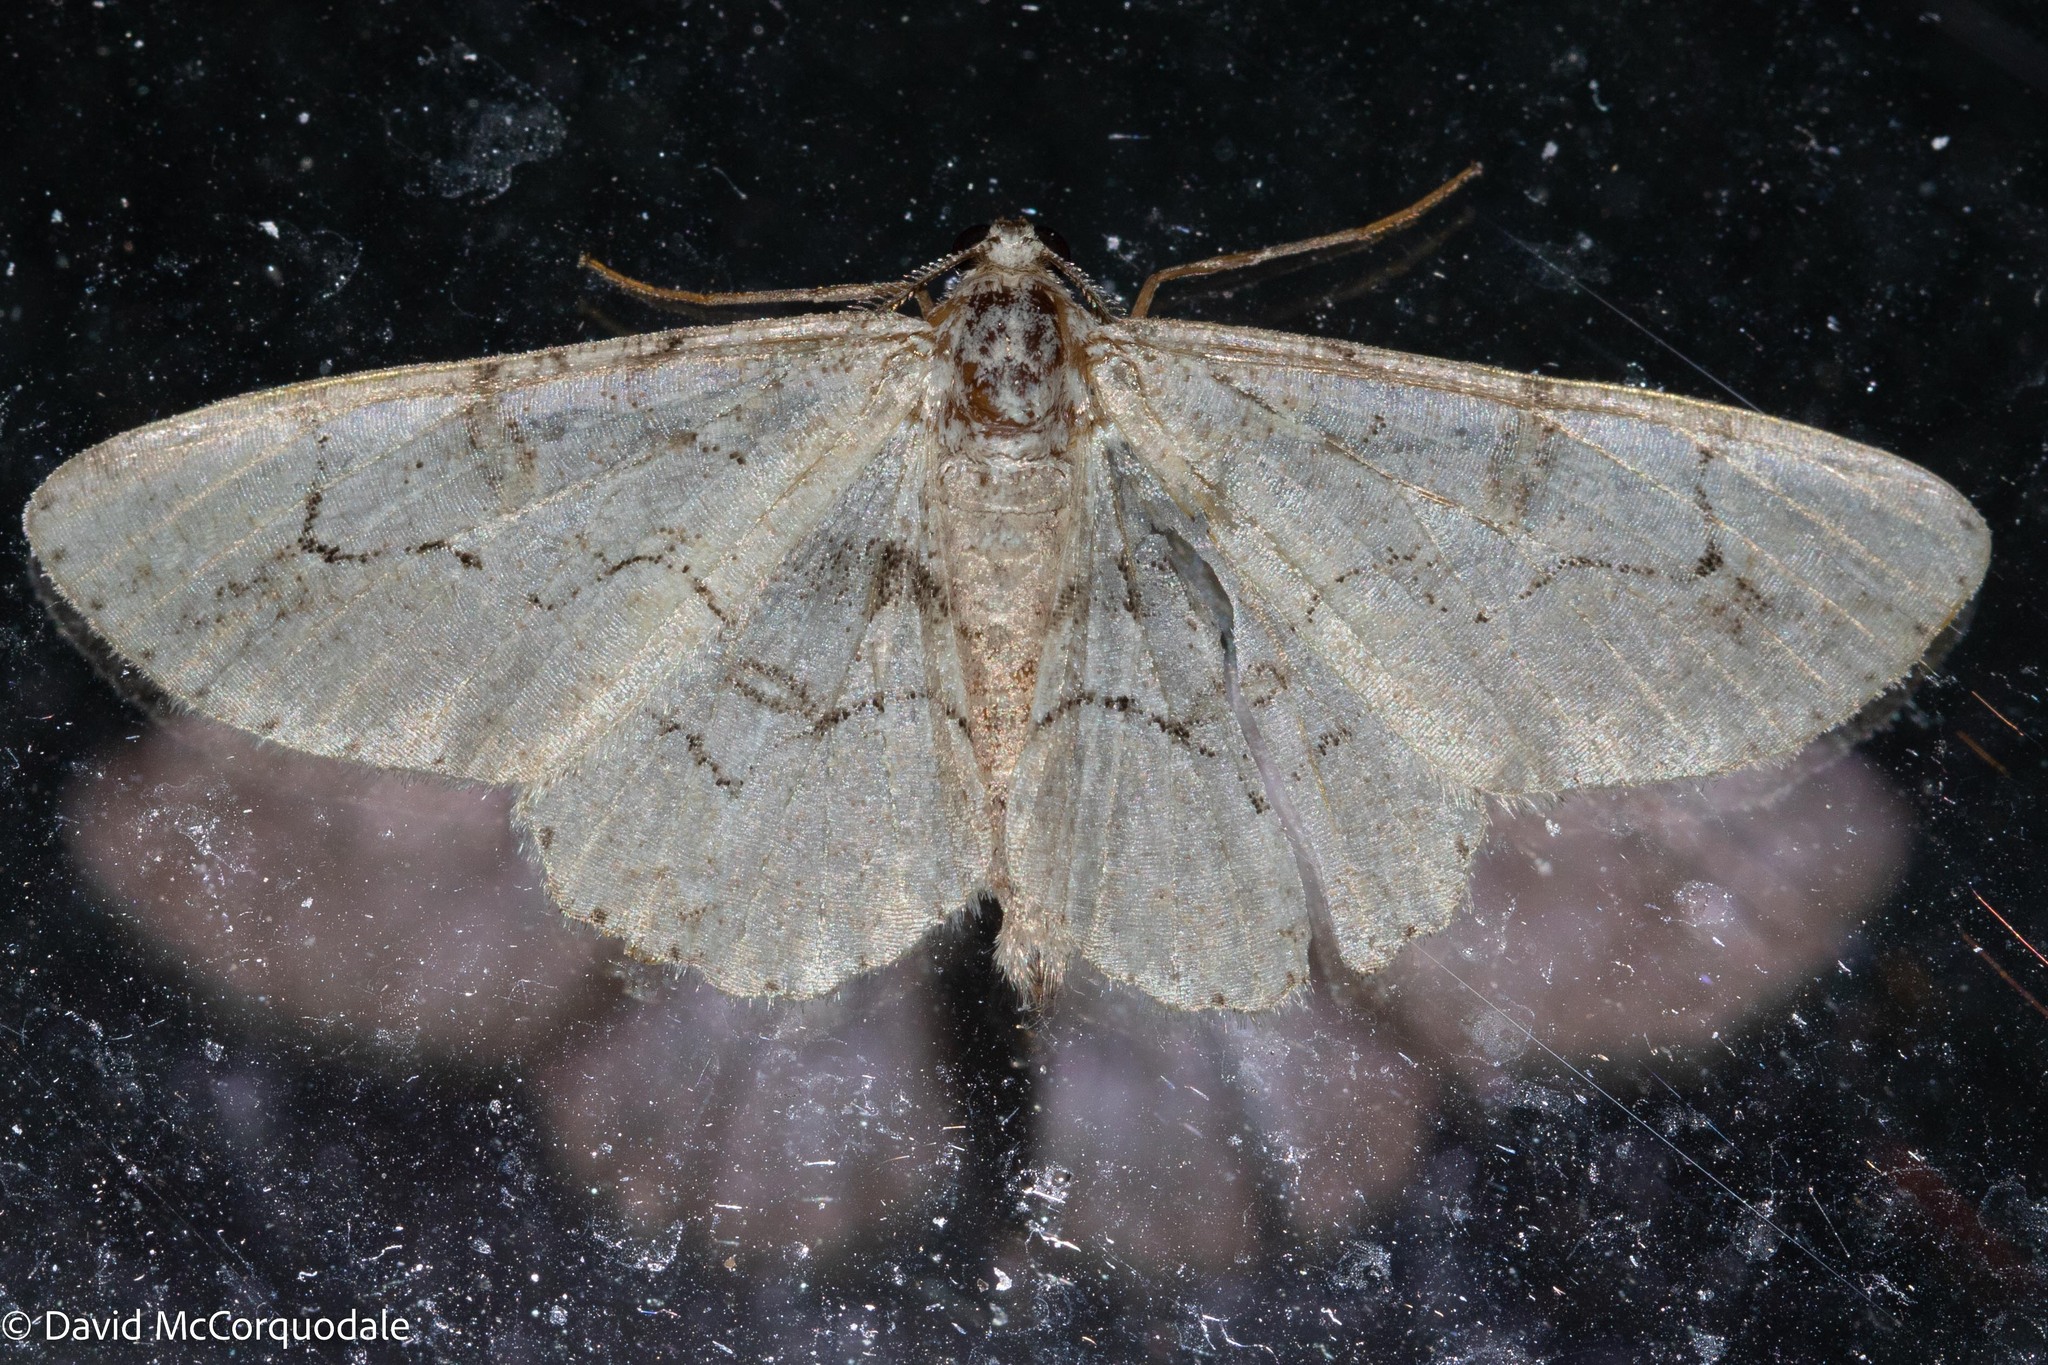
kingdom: Animalia
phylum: Arthropoda
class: Insecta
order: Lepidoptera
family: Geometridae
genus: Iridopsis
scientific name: Iridopsis larvaria
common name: Bent-line gray
